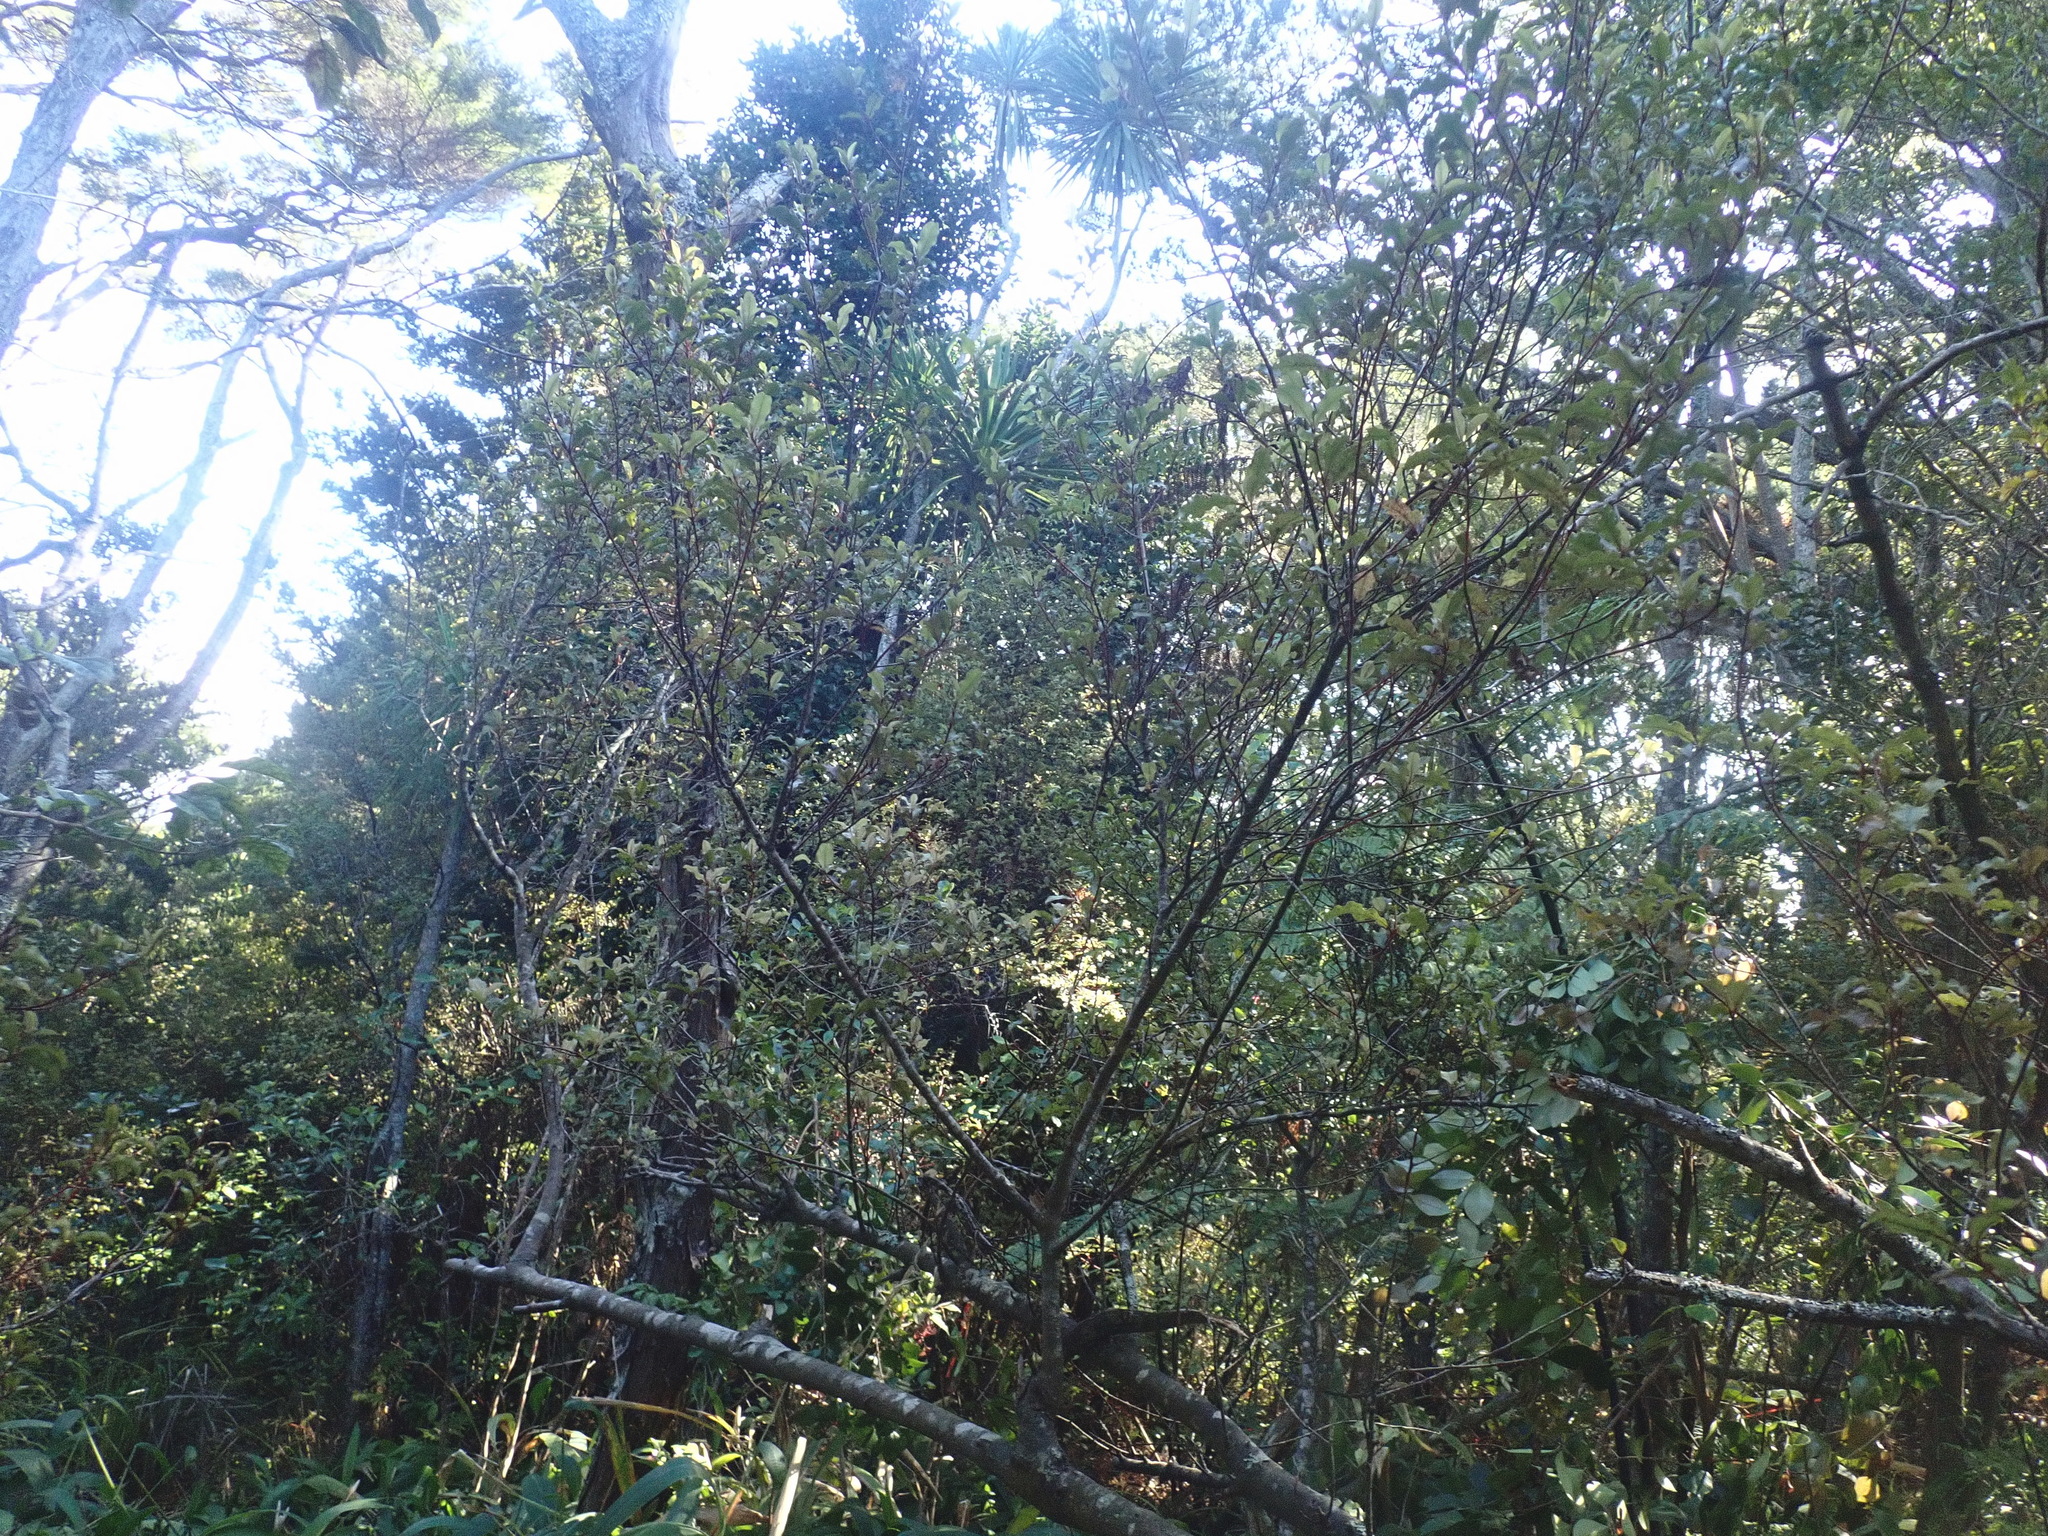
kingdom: Plantae
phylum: Tracheophyta
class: Liliopsida
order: Asparagales
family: Asparagaceae
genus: Cordyline
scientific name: Cordyline australis
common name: Cabbage-palm
